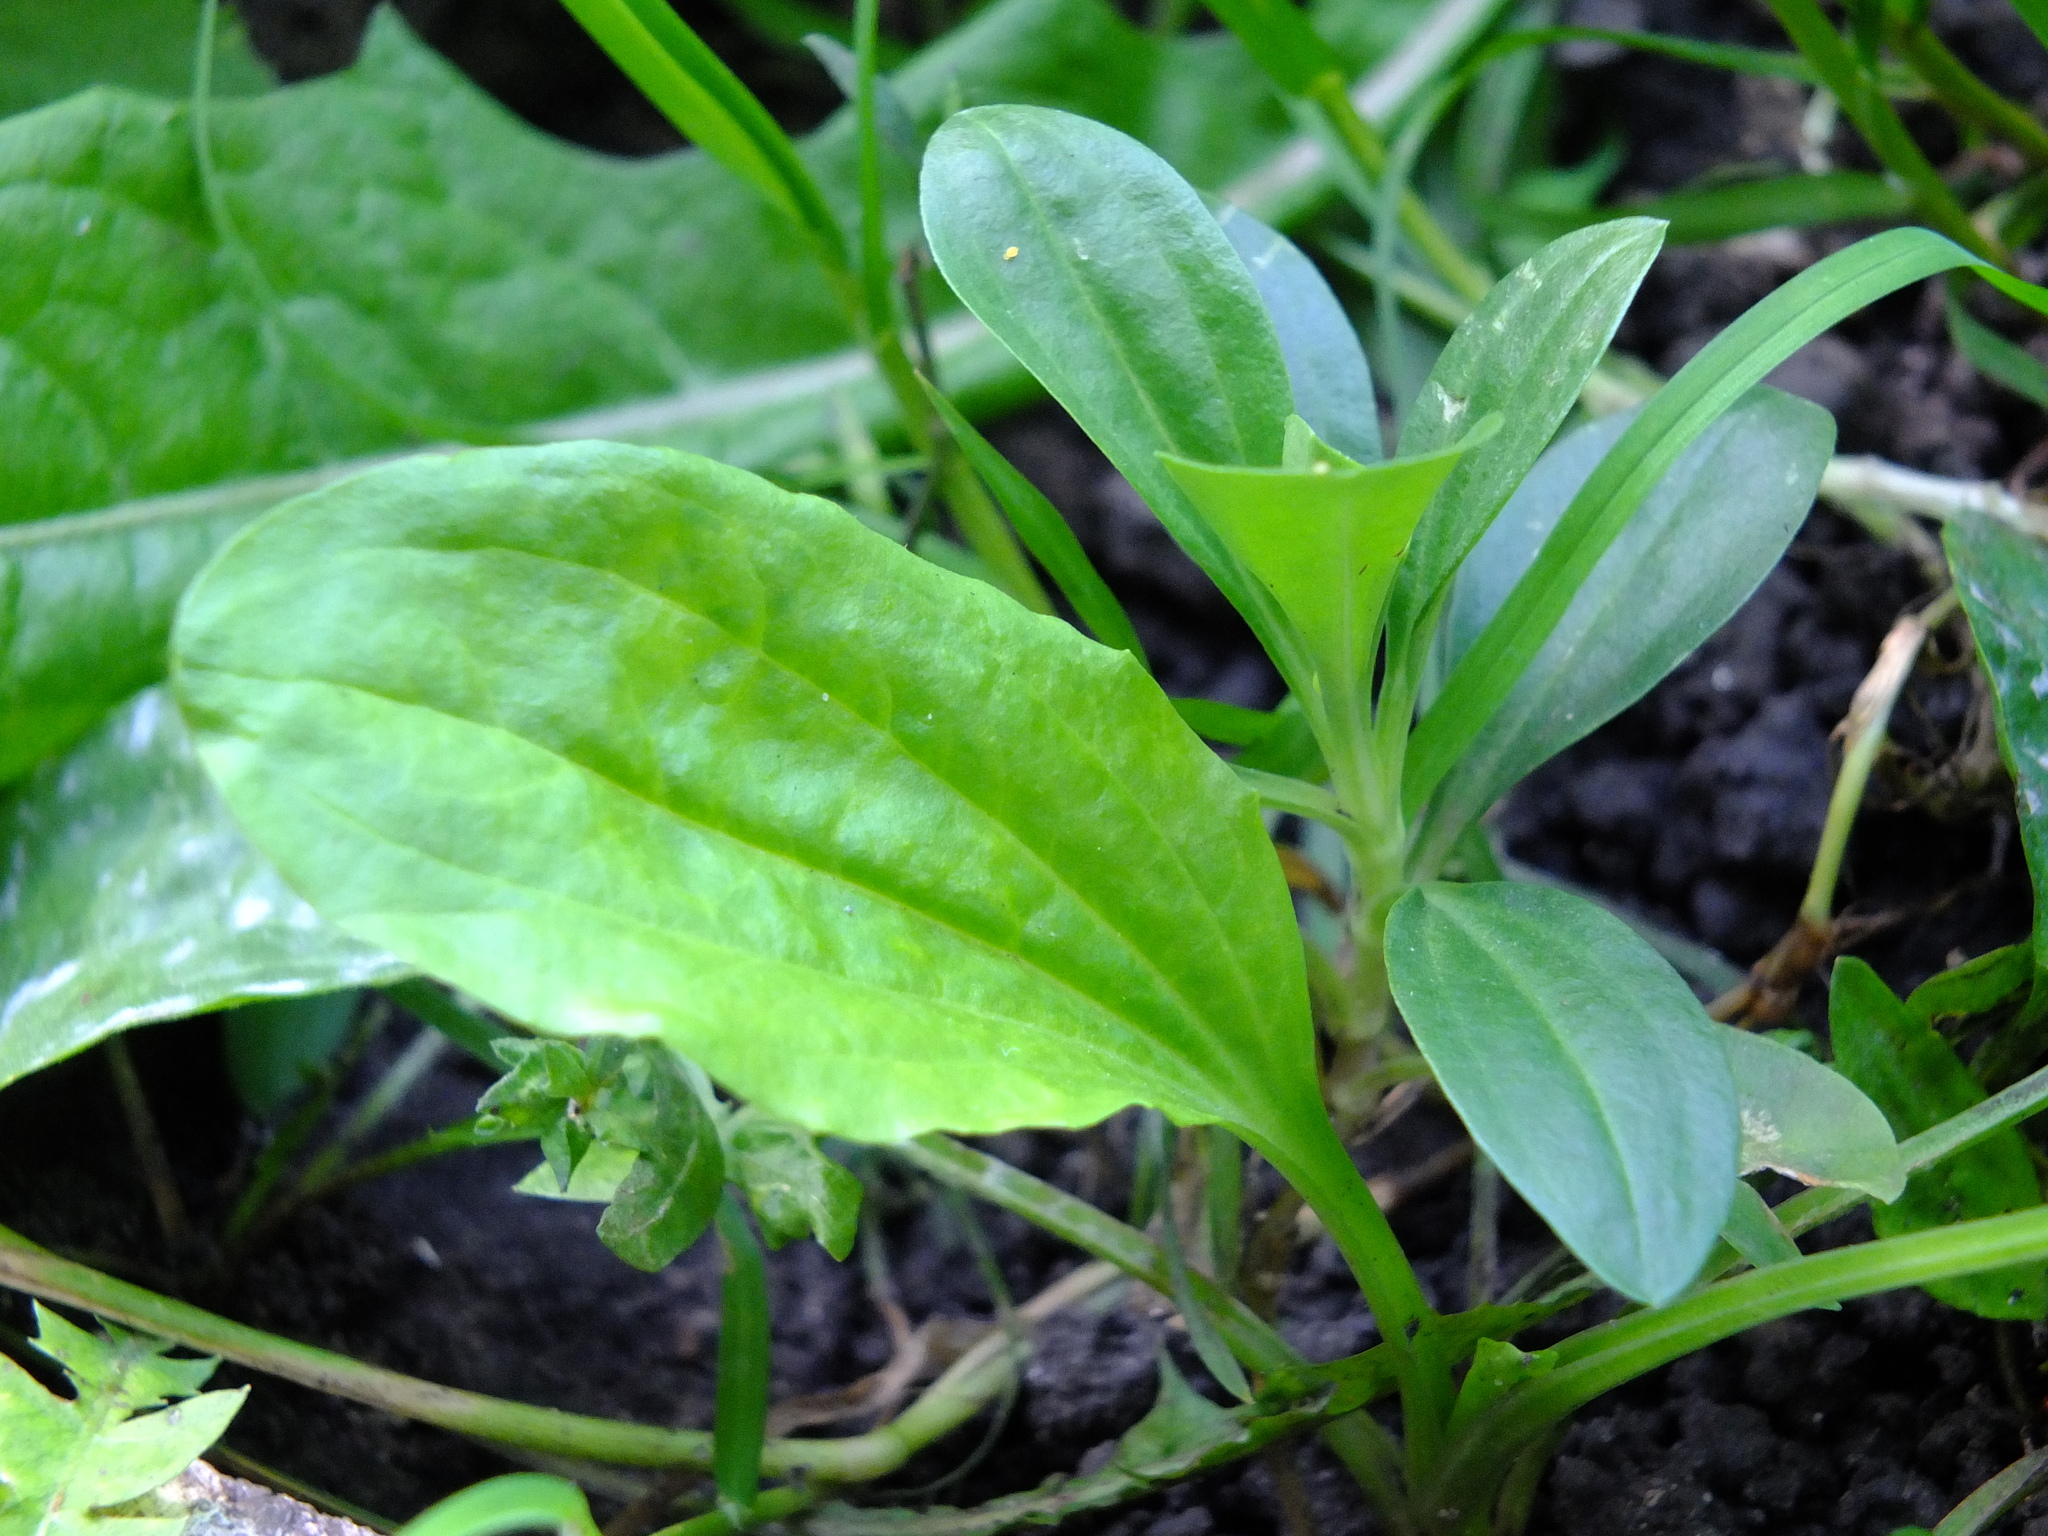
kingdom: Plantae
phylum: Tracheophyta
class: Magnoliopsida
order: Lamiales
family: Plantaginaceae
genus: Plantago
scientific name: Plantago major
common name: Common plantain
